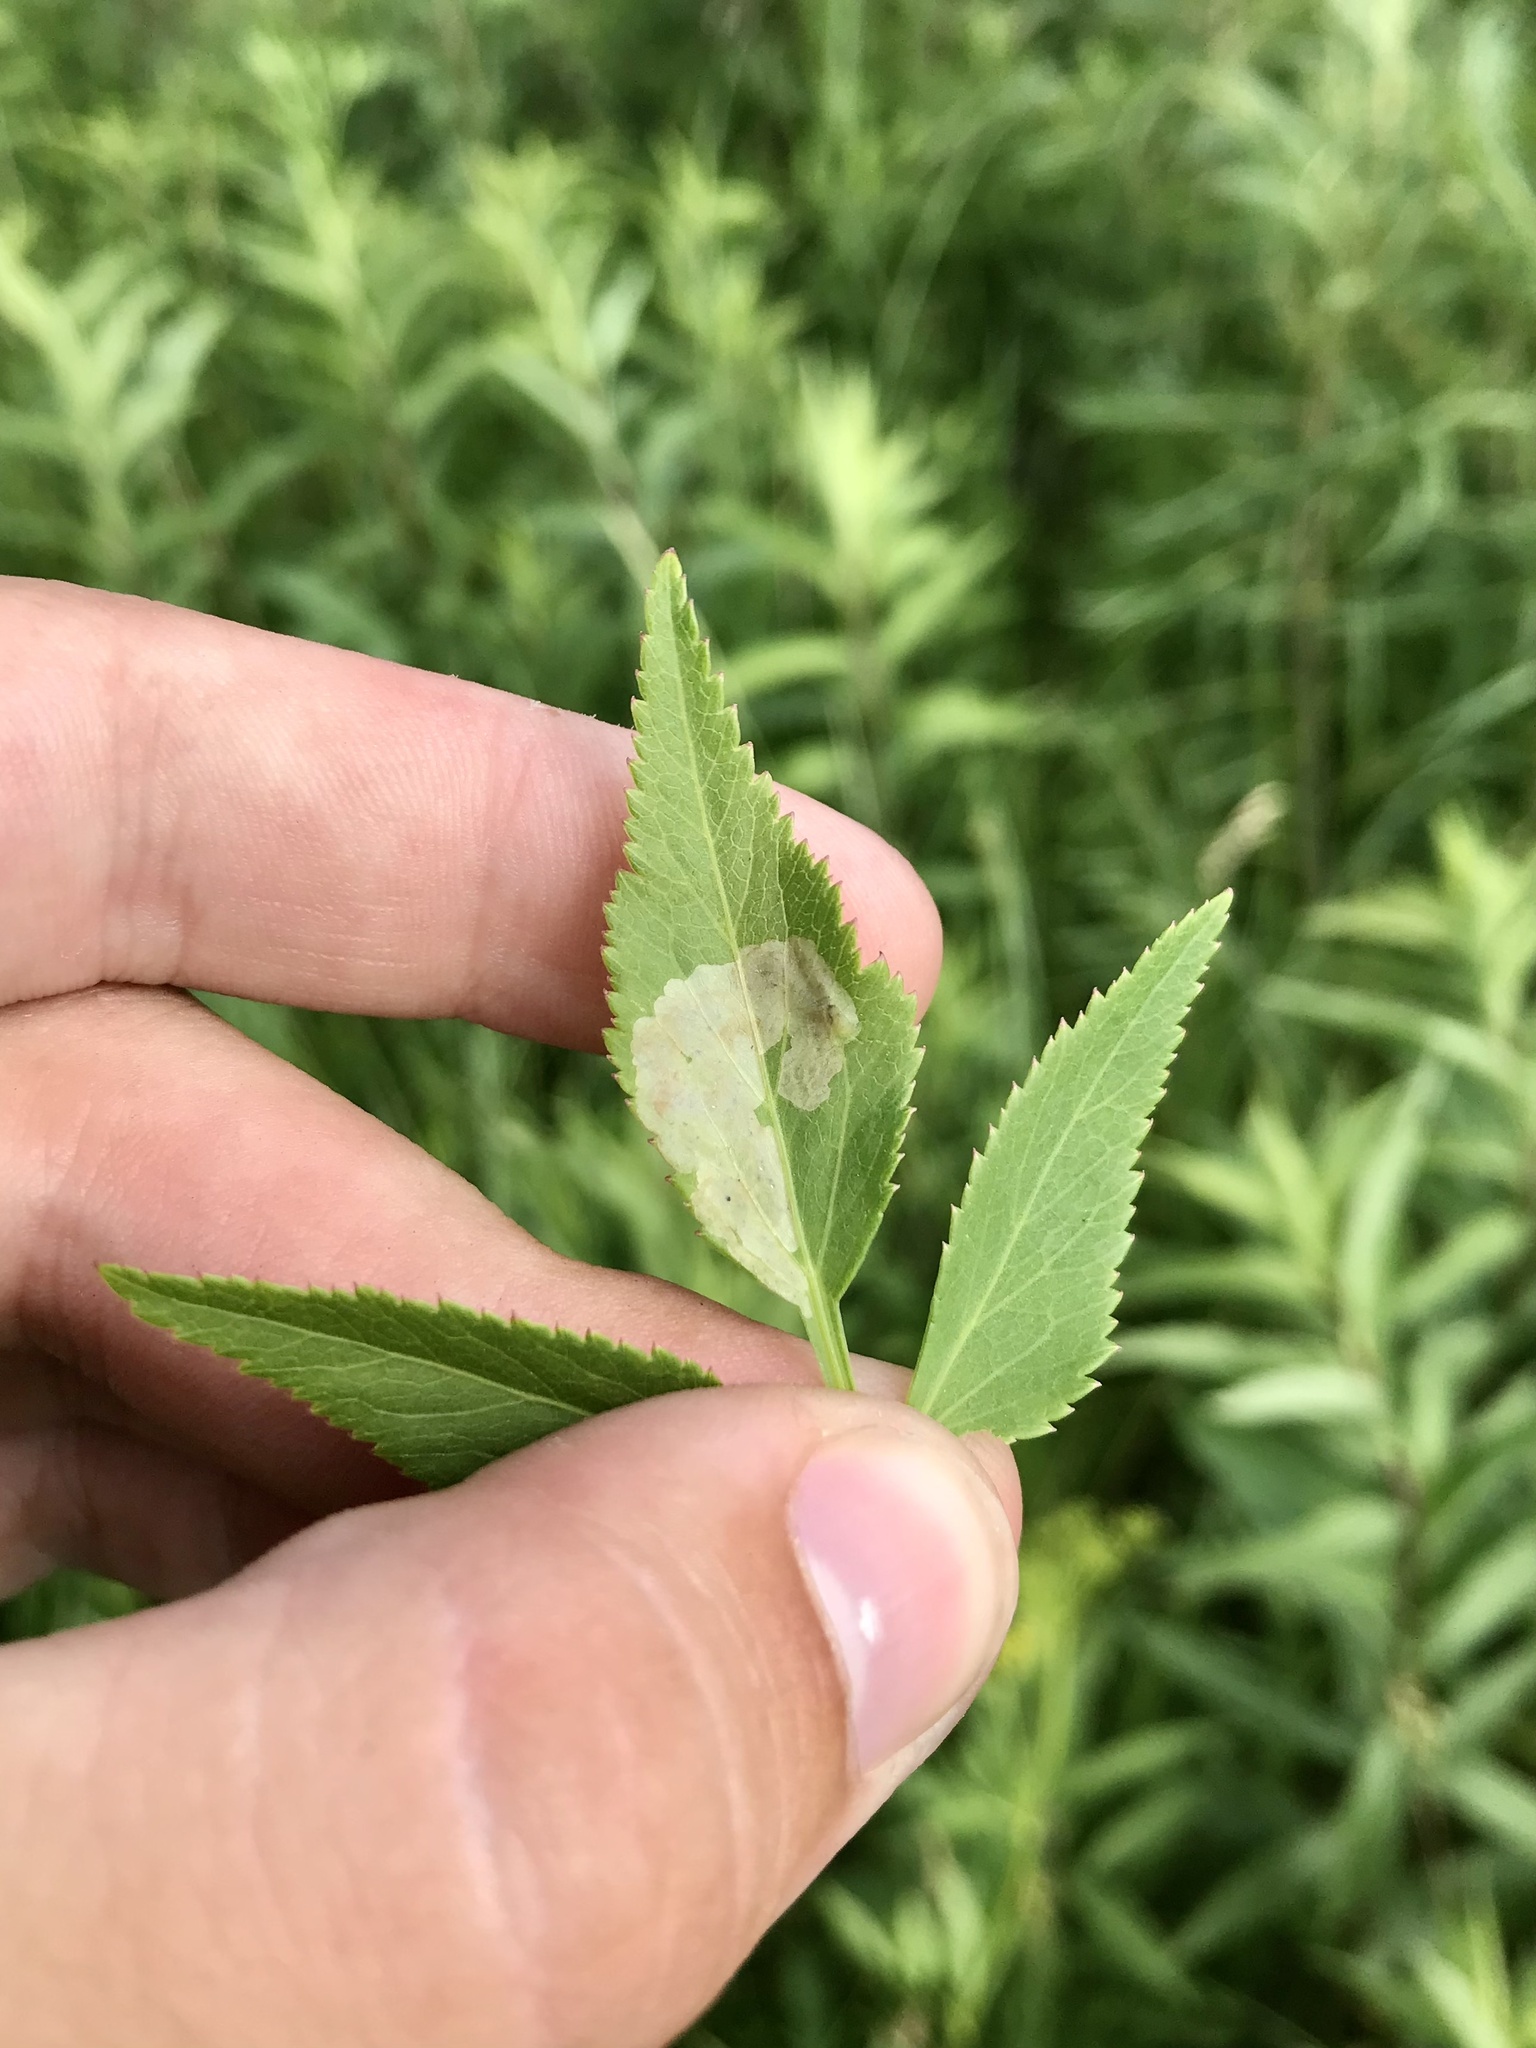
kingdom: Animalia
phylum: Arthropoda
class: Insecta
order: Diptera
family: Agromyzidae
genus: Phytomyza
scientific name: Phytomyza ziziae
